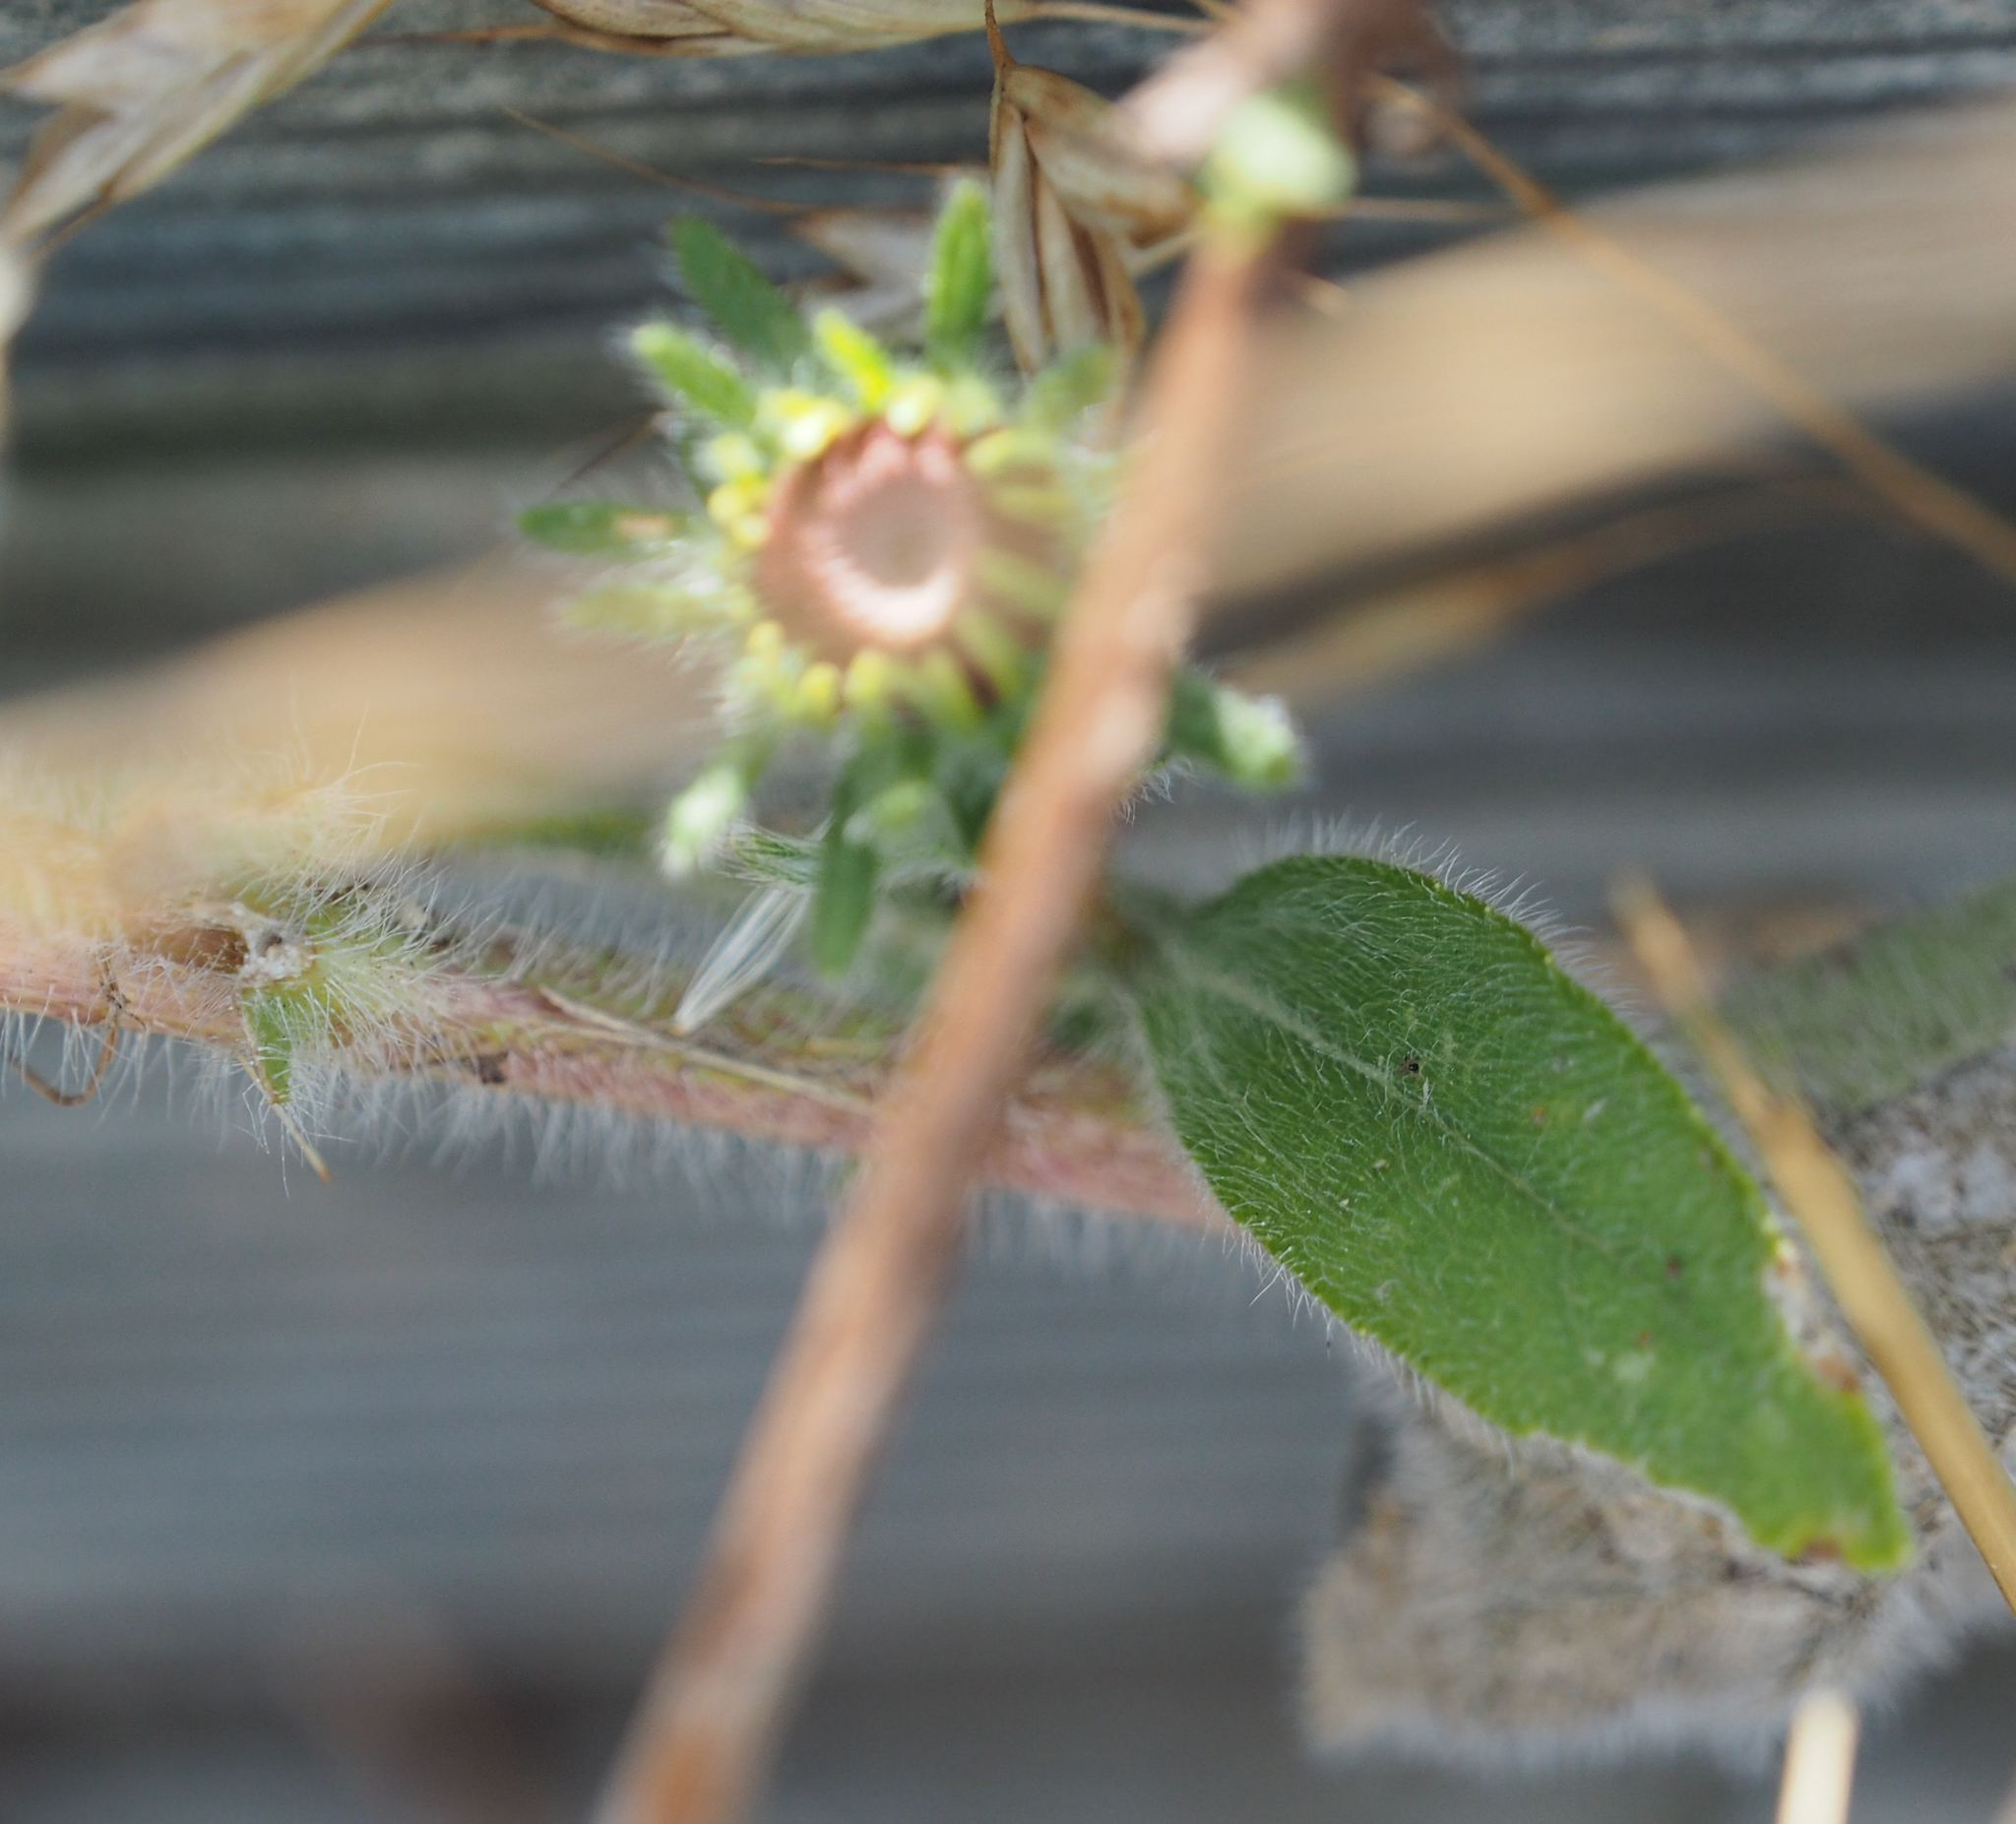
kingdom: Plantae
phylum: Tracheophyta
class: Magnoliopsida
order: Asterales
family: Asteraceae
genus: Rudbeckia
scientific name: Rudbeckia hirta
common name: Black-eyed-susan
